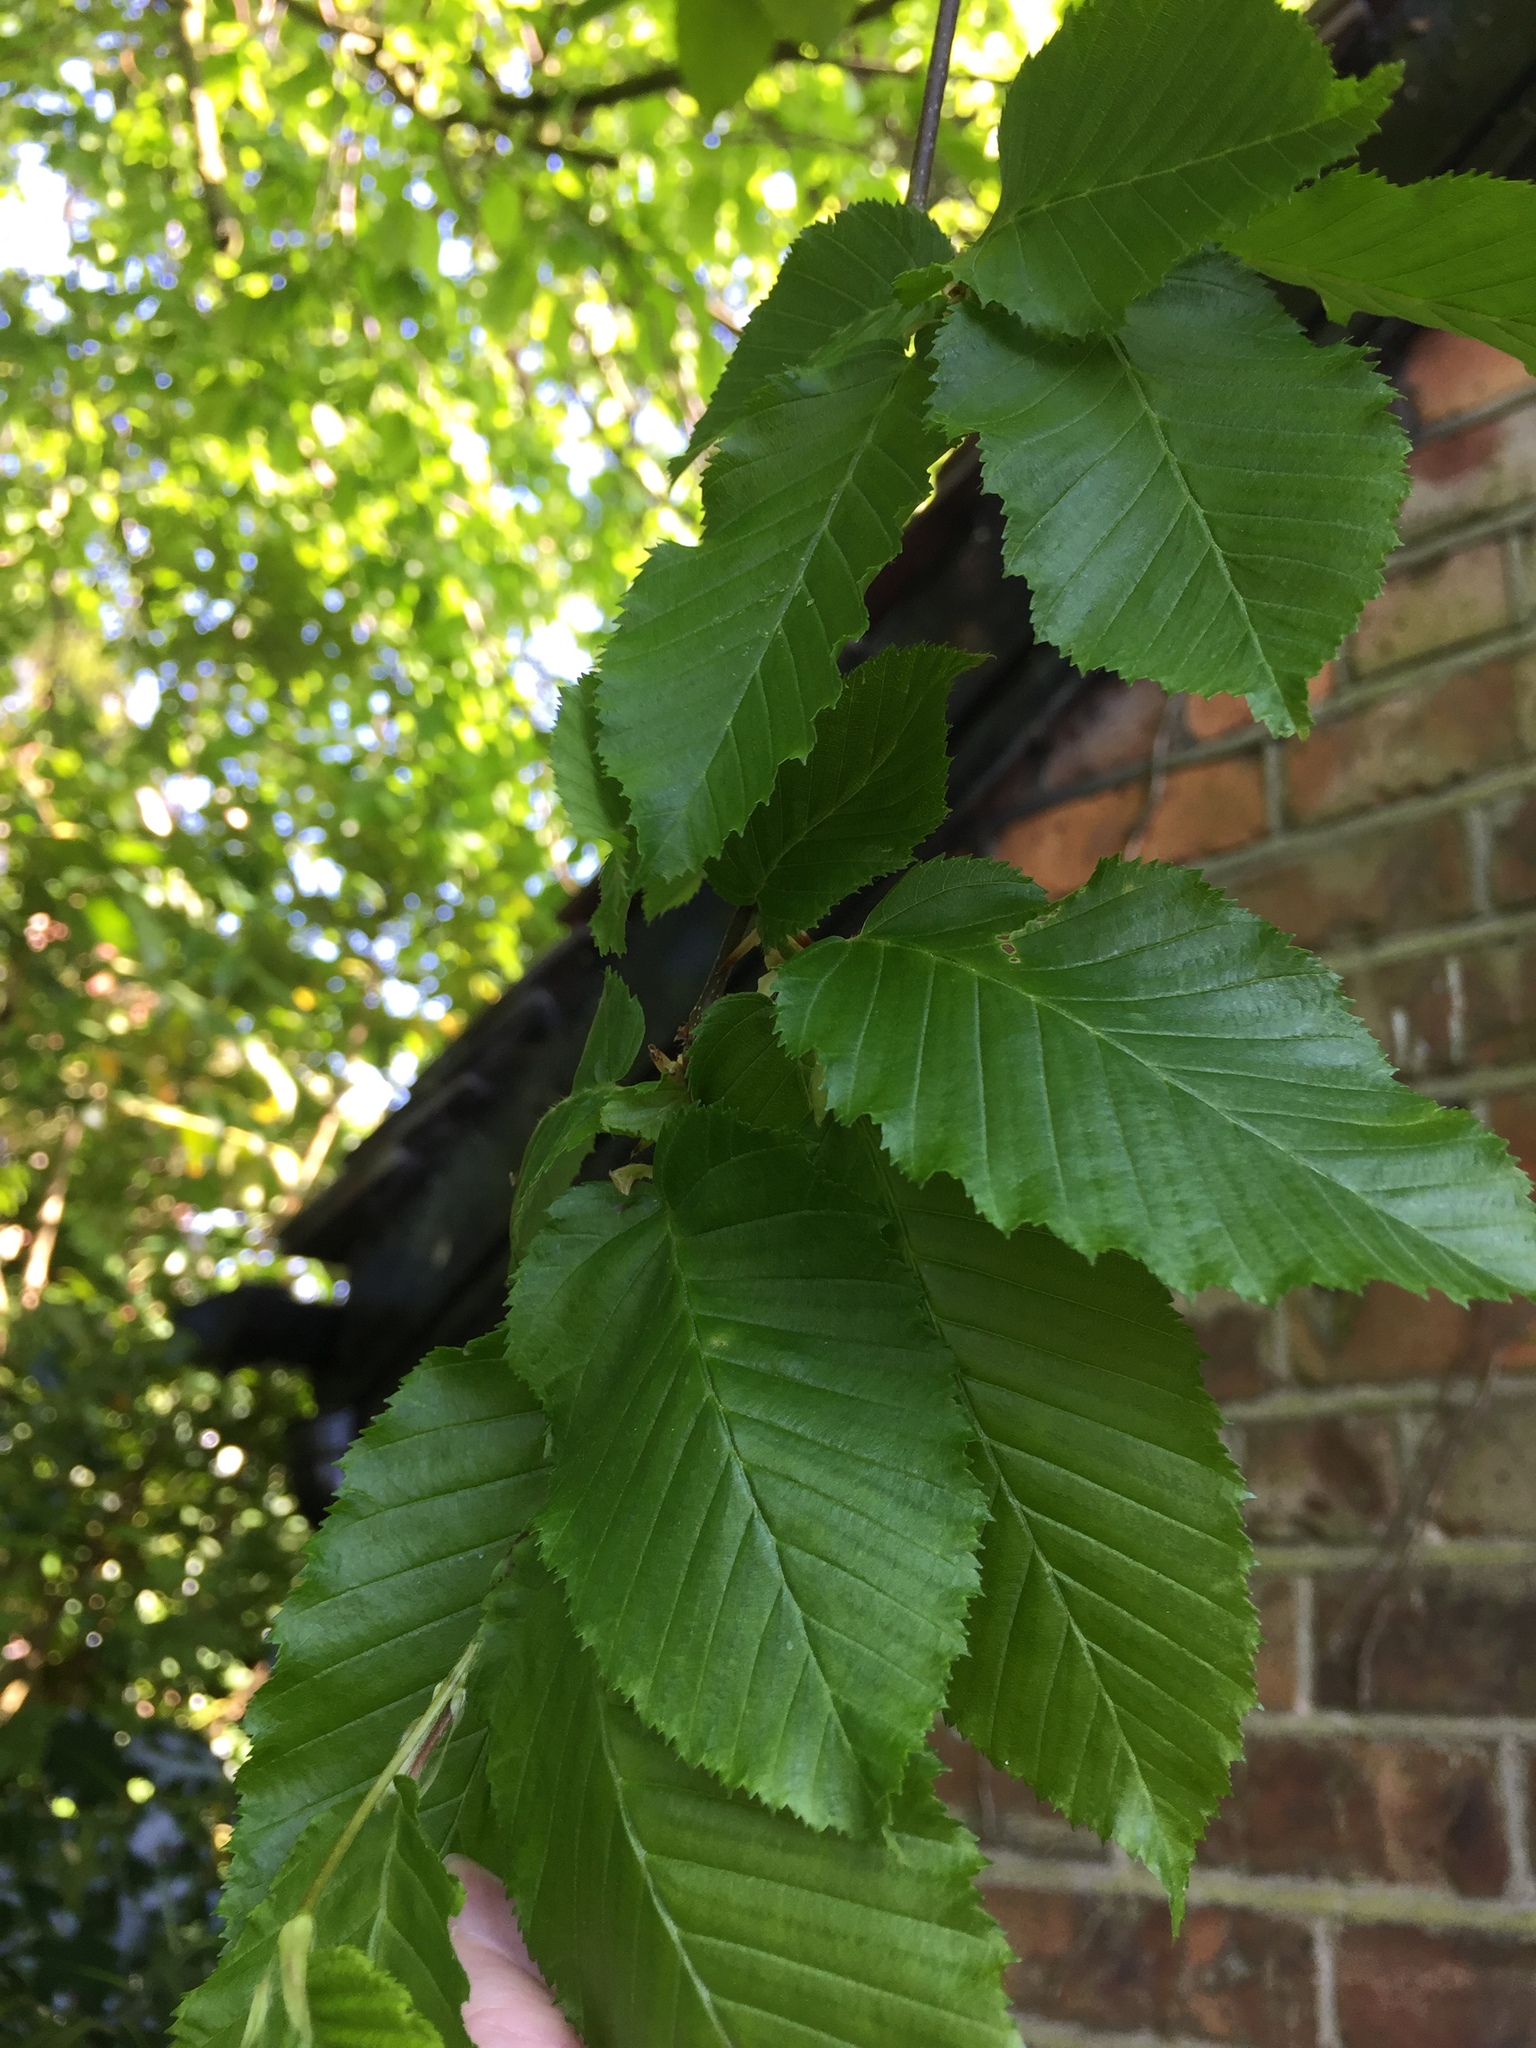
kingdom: Plantae
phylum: Tracheophyta
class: Magnoliopsida
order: Fagales
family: Betulaceae
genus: Carpinus
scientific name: Carpinus betulus
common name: Hornbeam
